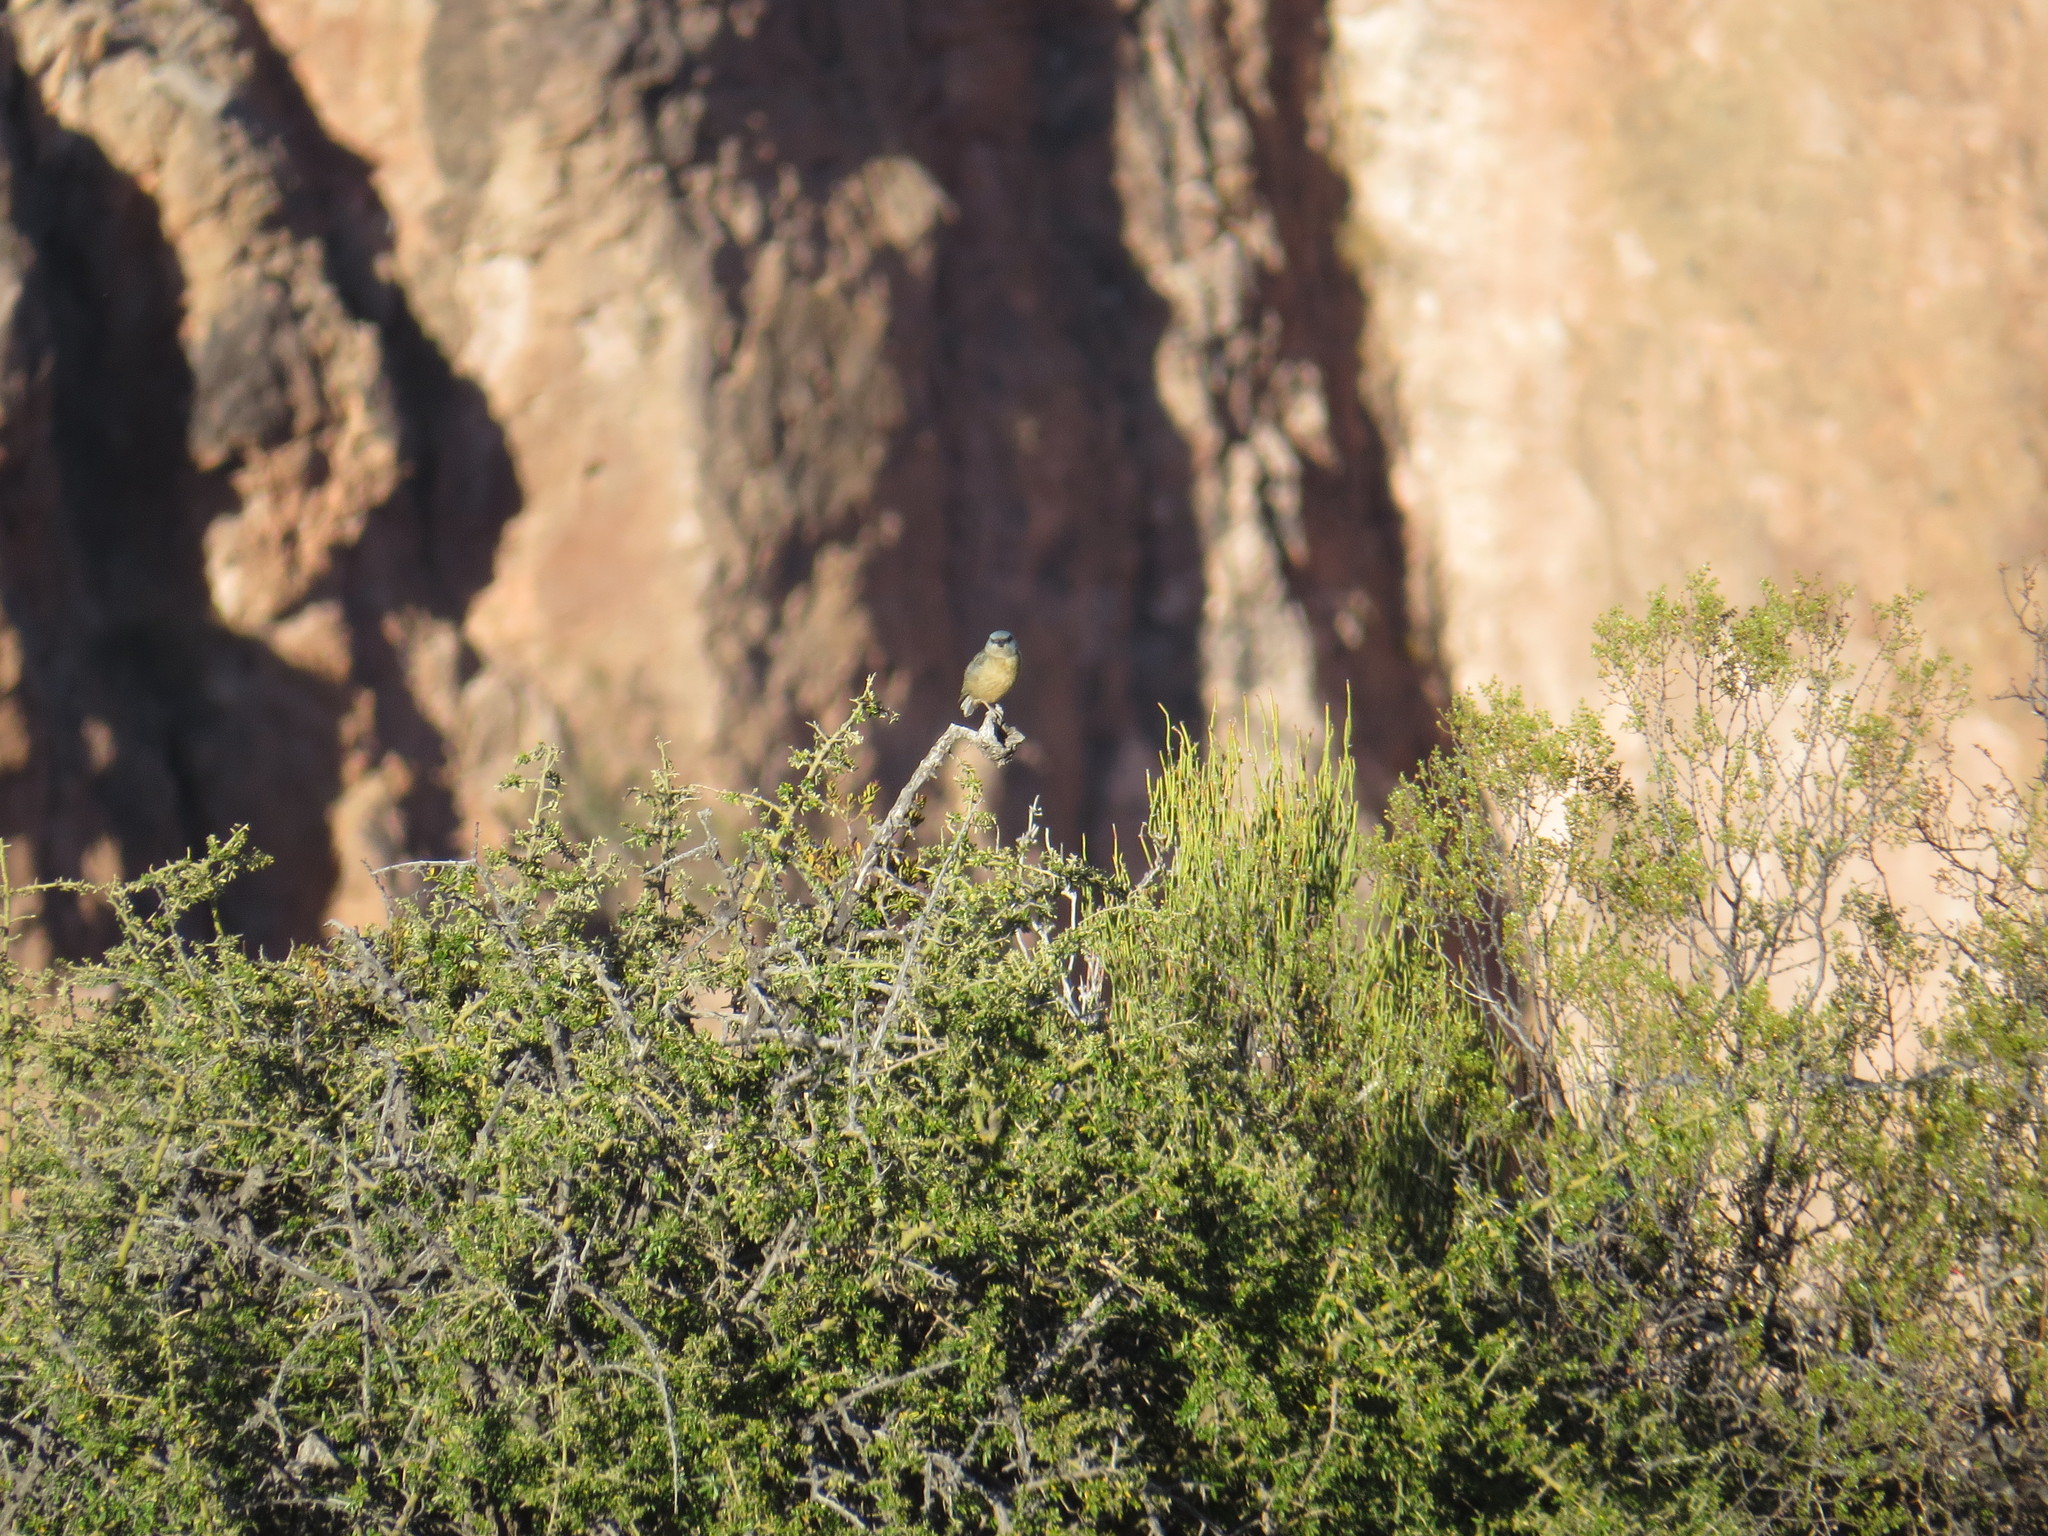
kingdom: Animalia
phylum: Chordata
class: Aves
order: Passeriformes
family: Thraupidae
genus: Rauenia
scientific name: Rauenia bonariensis
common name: Blue-and-yellow tanager
